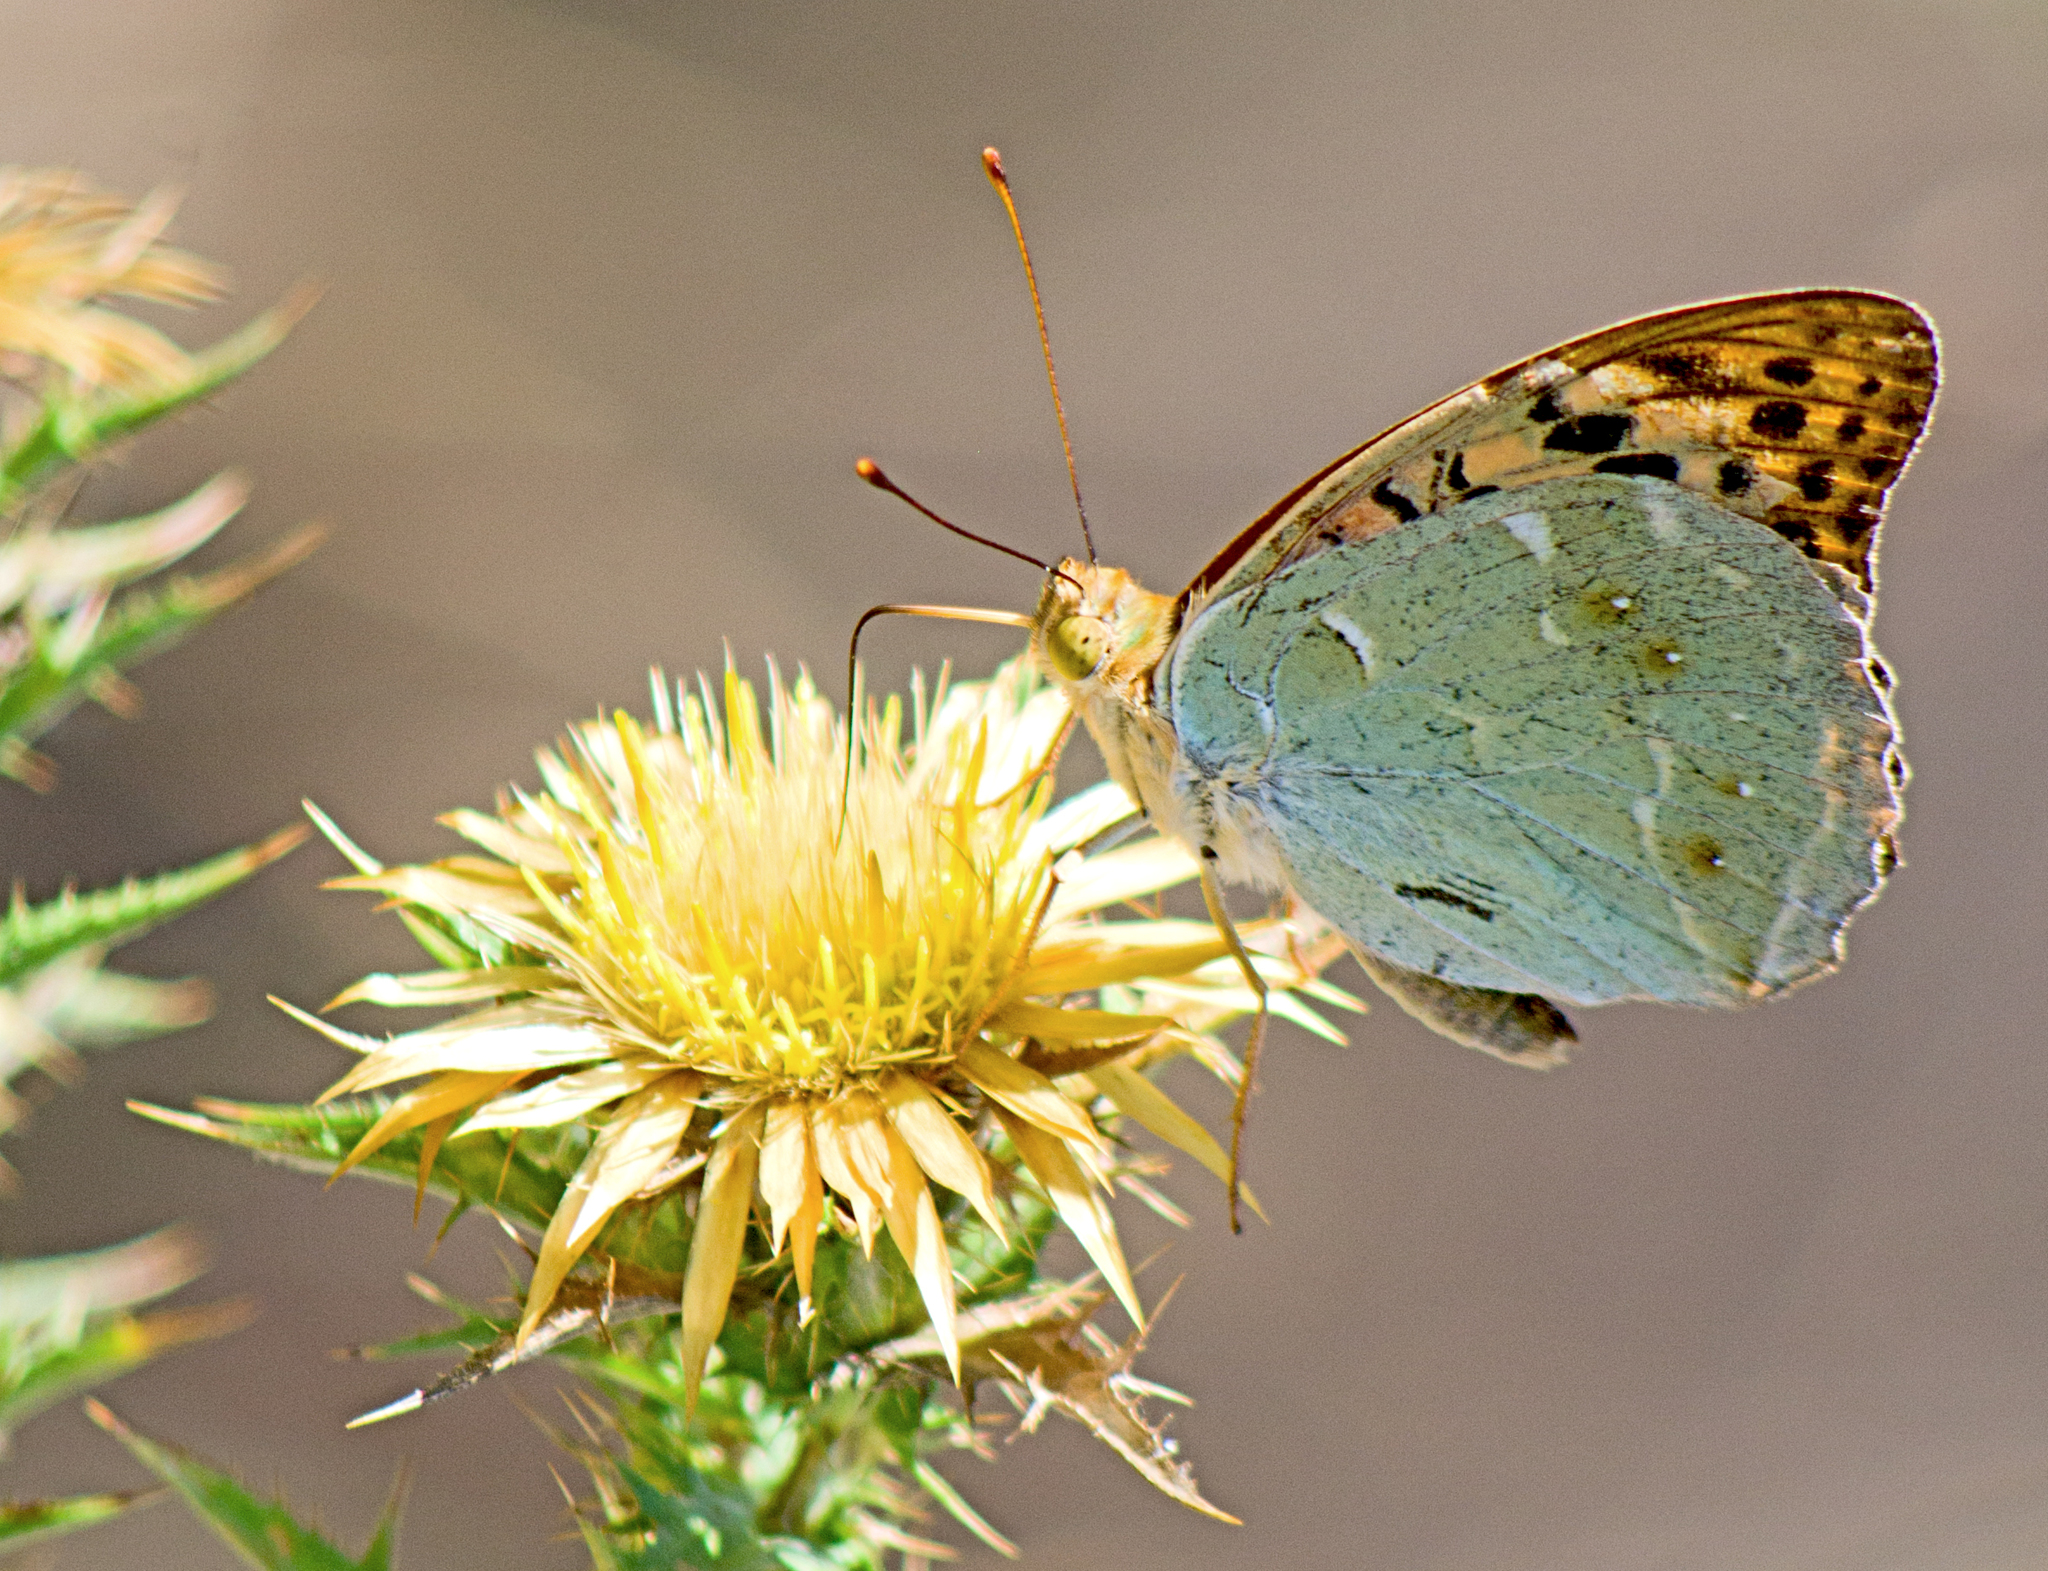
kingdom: Animalia
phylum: Arthropoda
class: Insecta
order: Lepidoptera
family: Nymphalidae
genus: Damora
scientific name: Damora pandora
